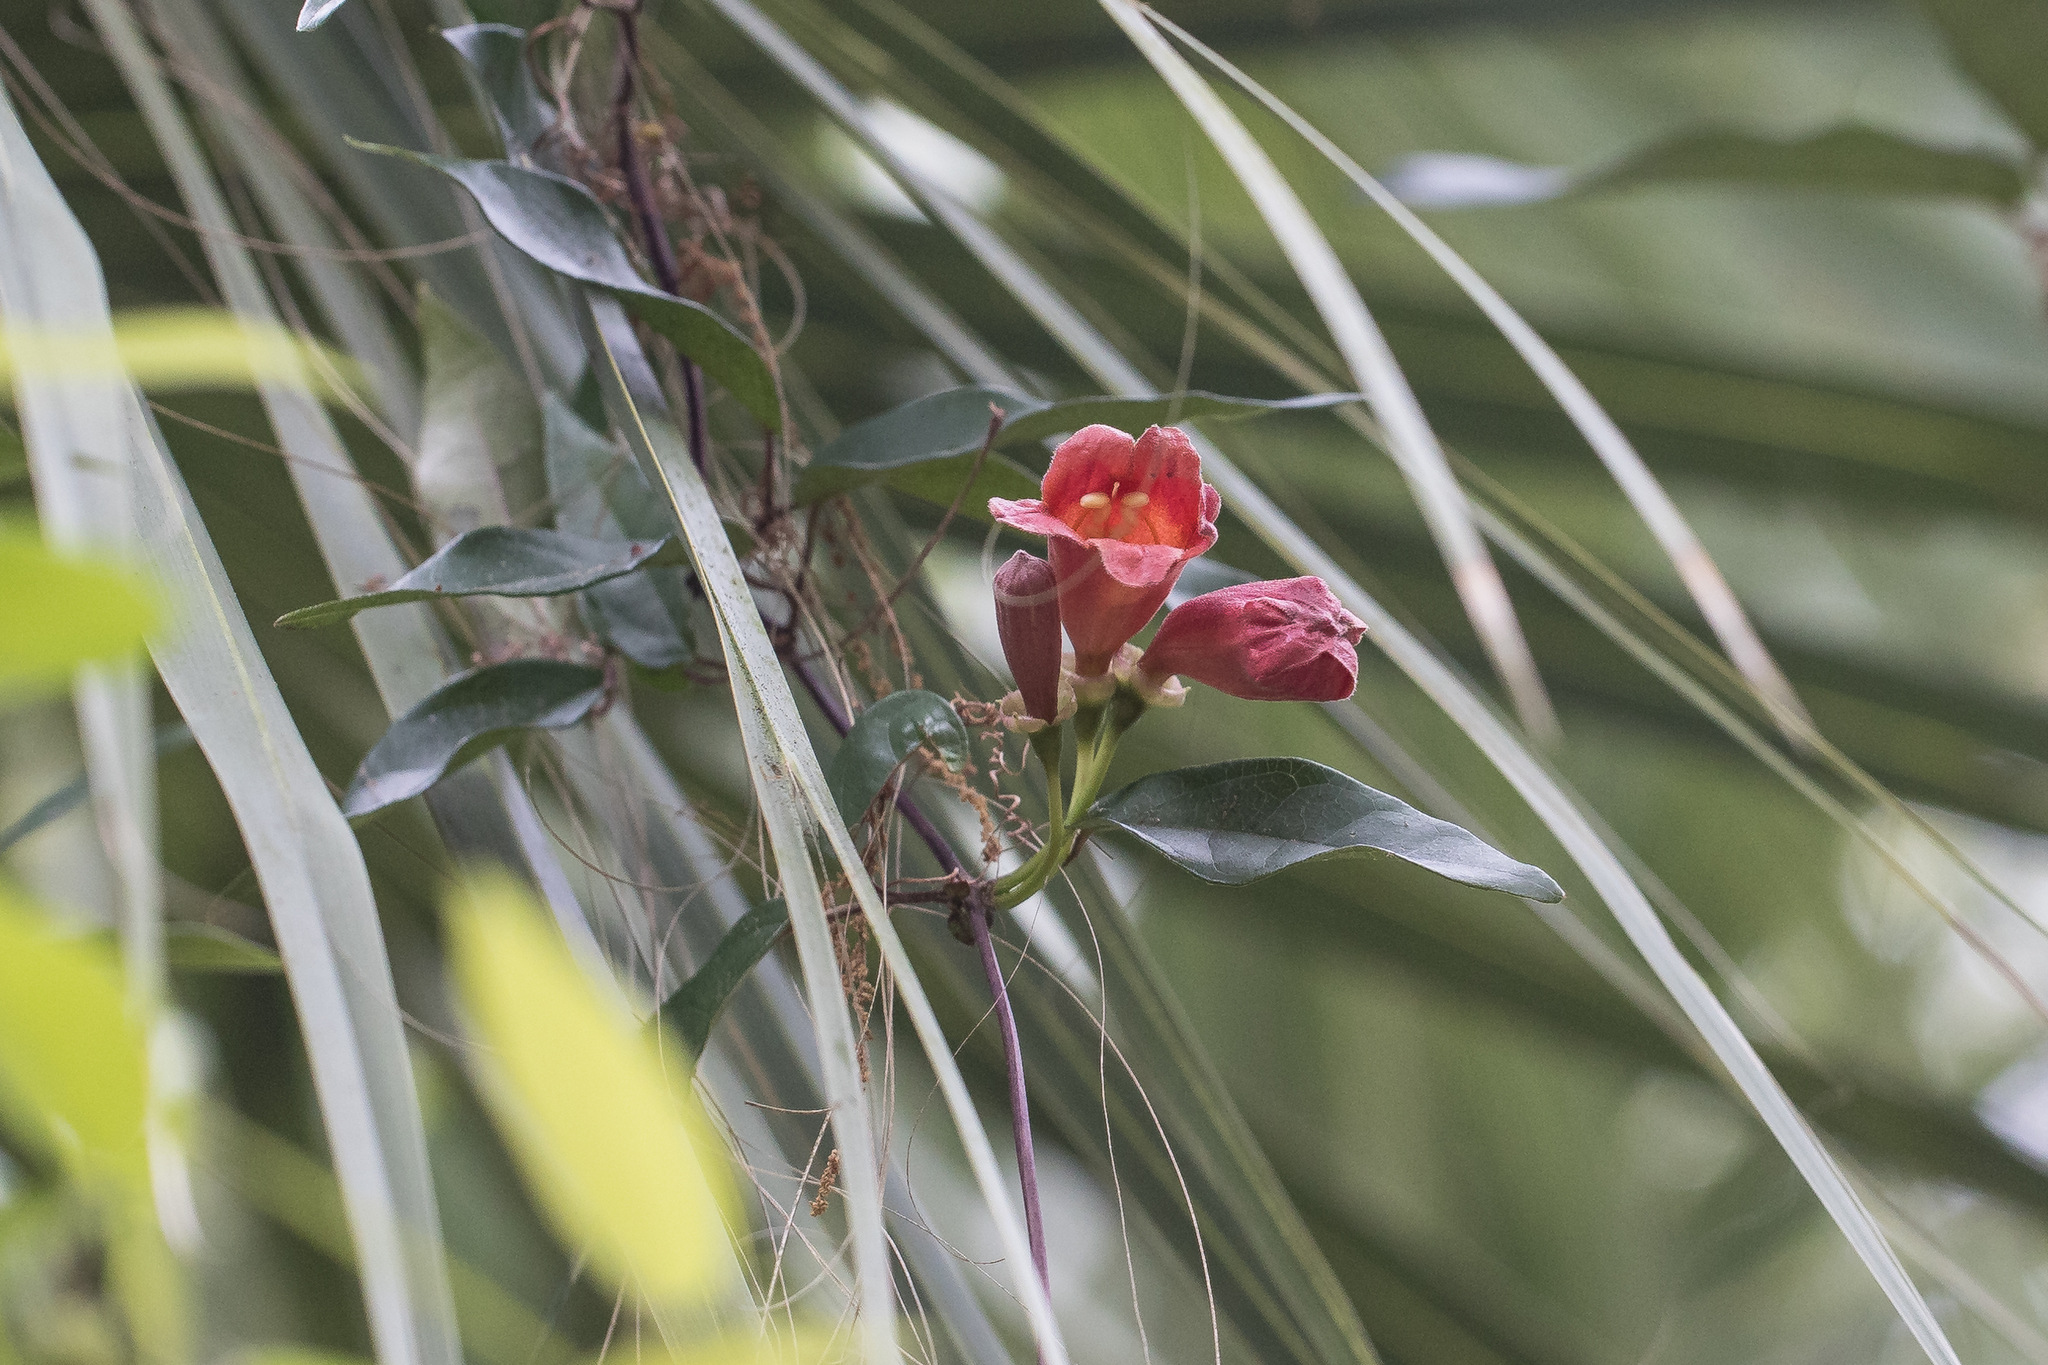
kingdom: Plantae
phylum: Tracheophyta
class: Magnoliopsida
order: Lamiales
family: Bignoniaceae
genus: Bignonia
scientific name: Bignonia capreolata
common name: Crossvine
